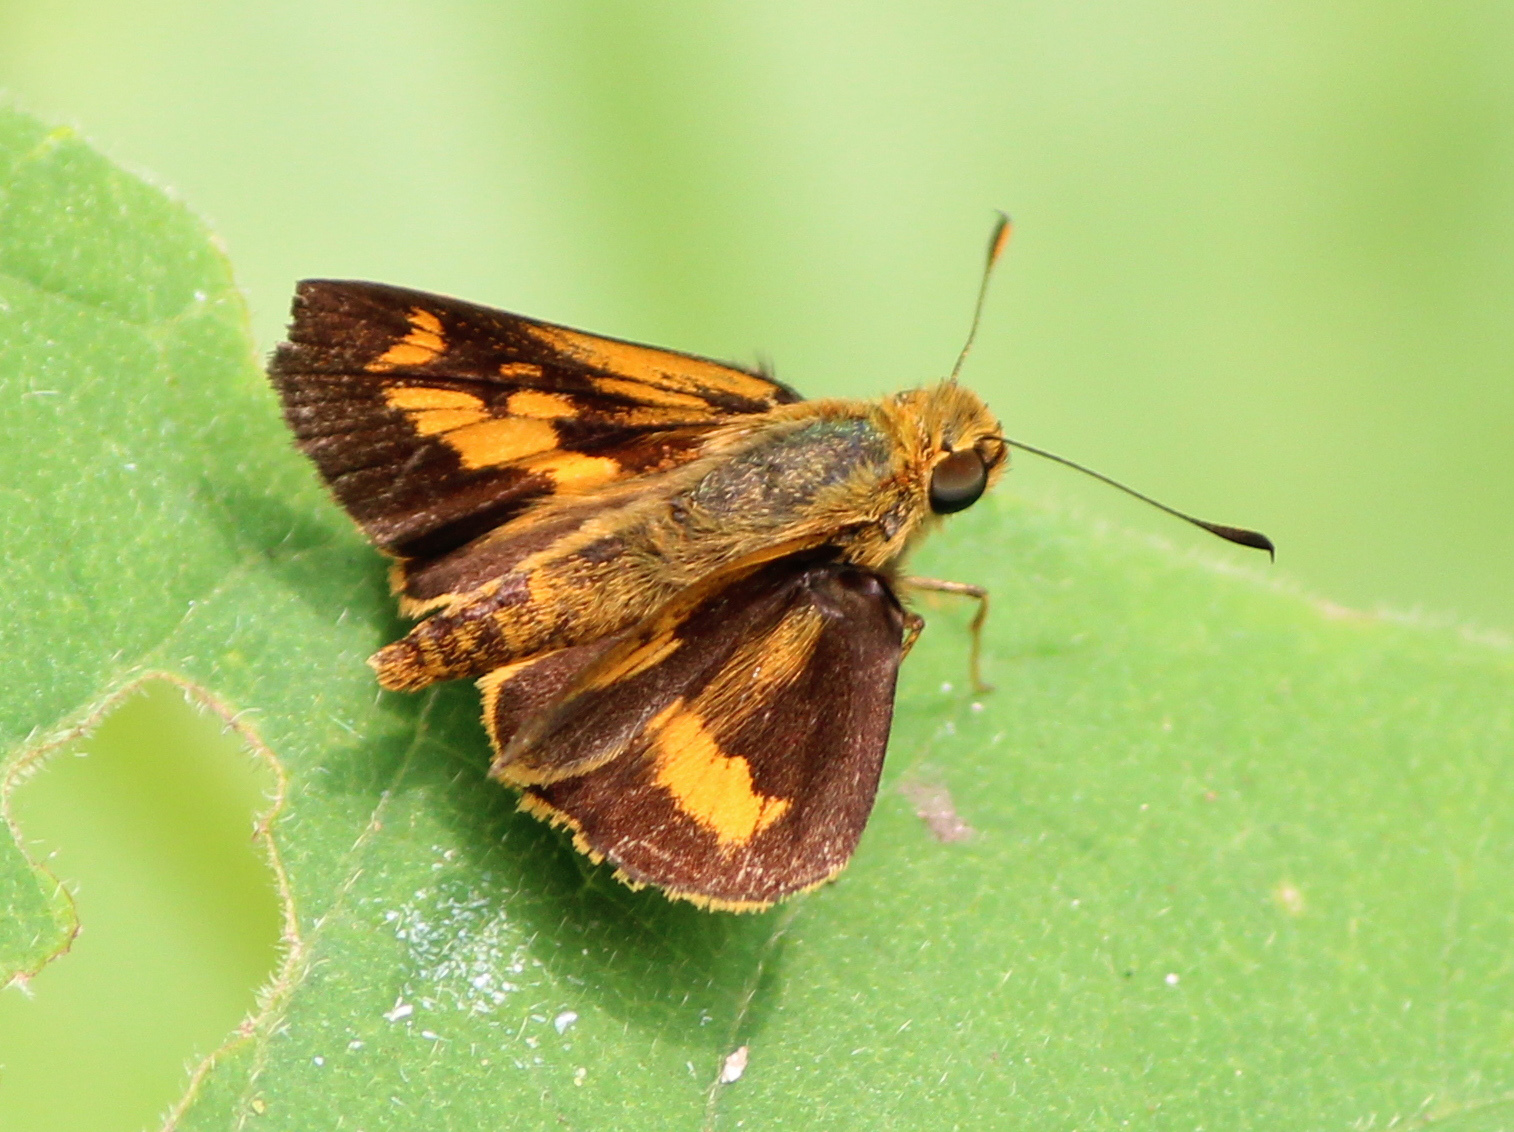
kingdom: Animalia
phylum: Arthropoda
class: Insecta
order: Lepidoptera
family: Hesperiidae
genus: Oriens
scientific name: Oriens goloides
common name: Smaller dartlet
